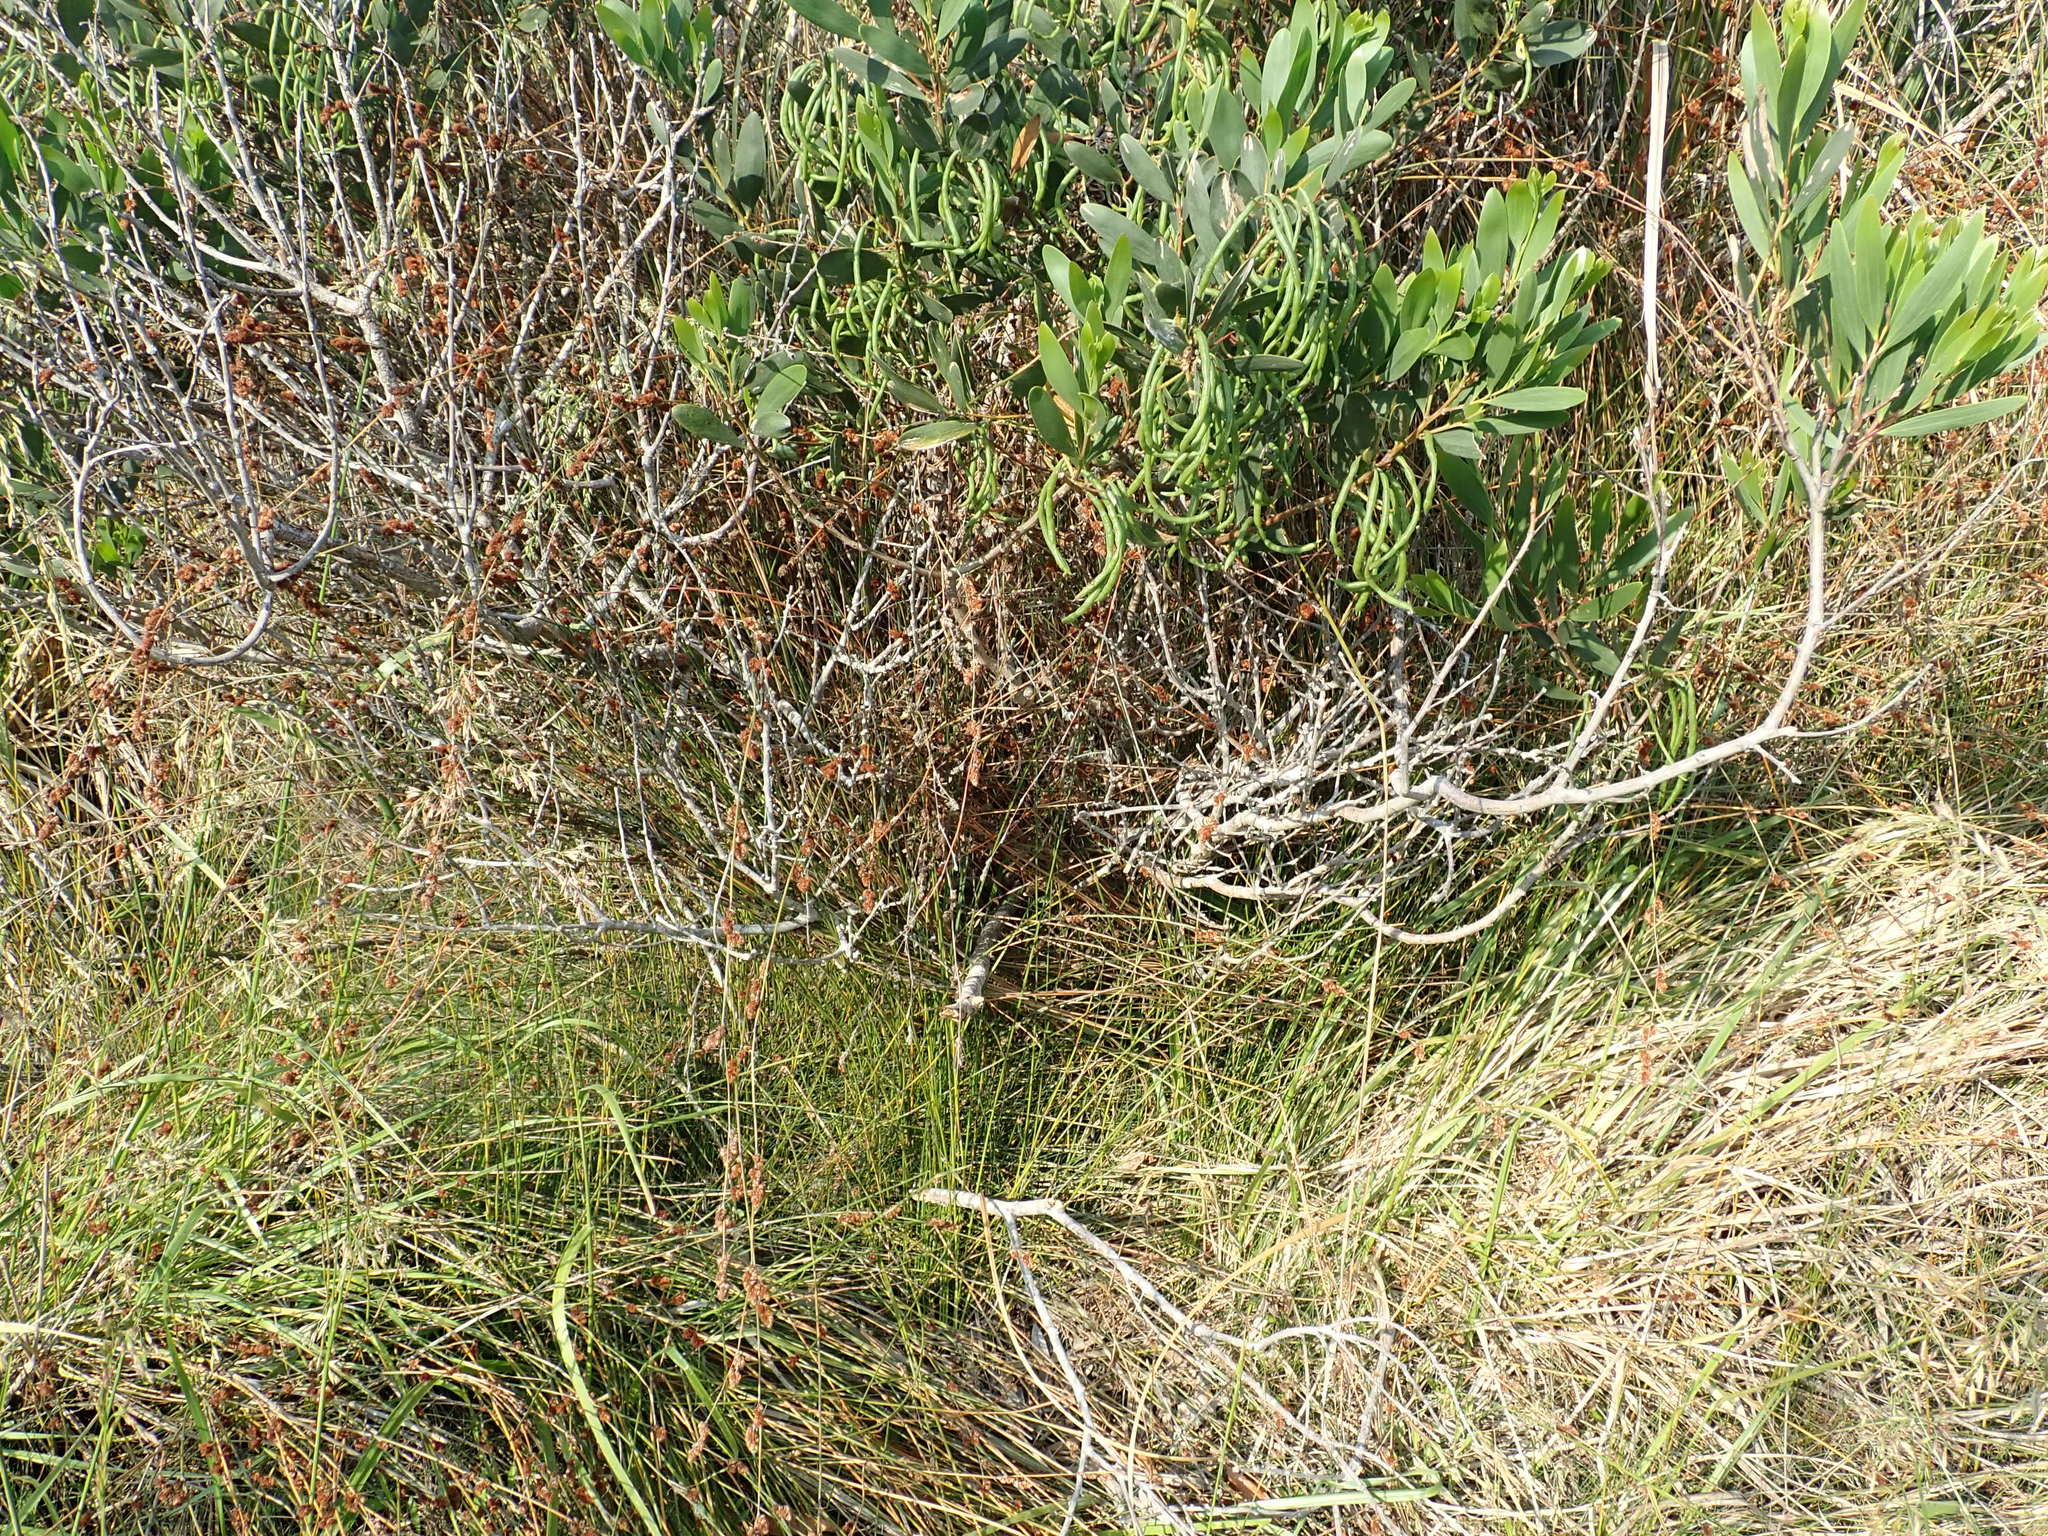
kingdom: Plantae
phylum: Tracheophyta
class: Liliopsida
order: Poales
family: Restionaceae
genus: Apodasmia
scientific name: Apodasmia similis
